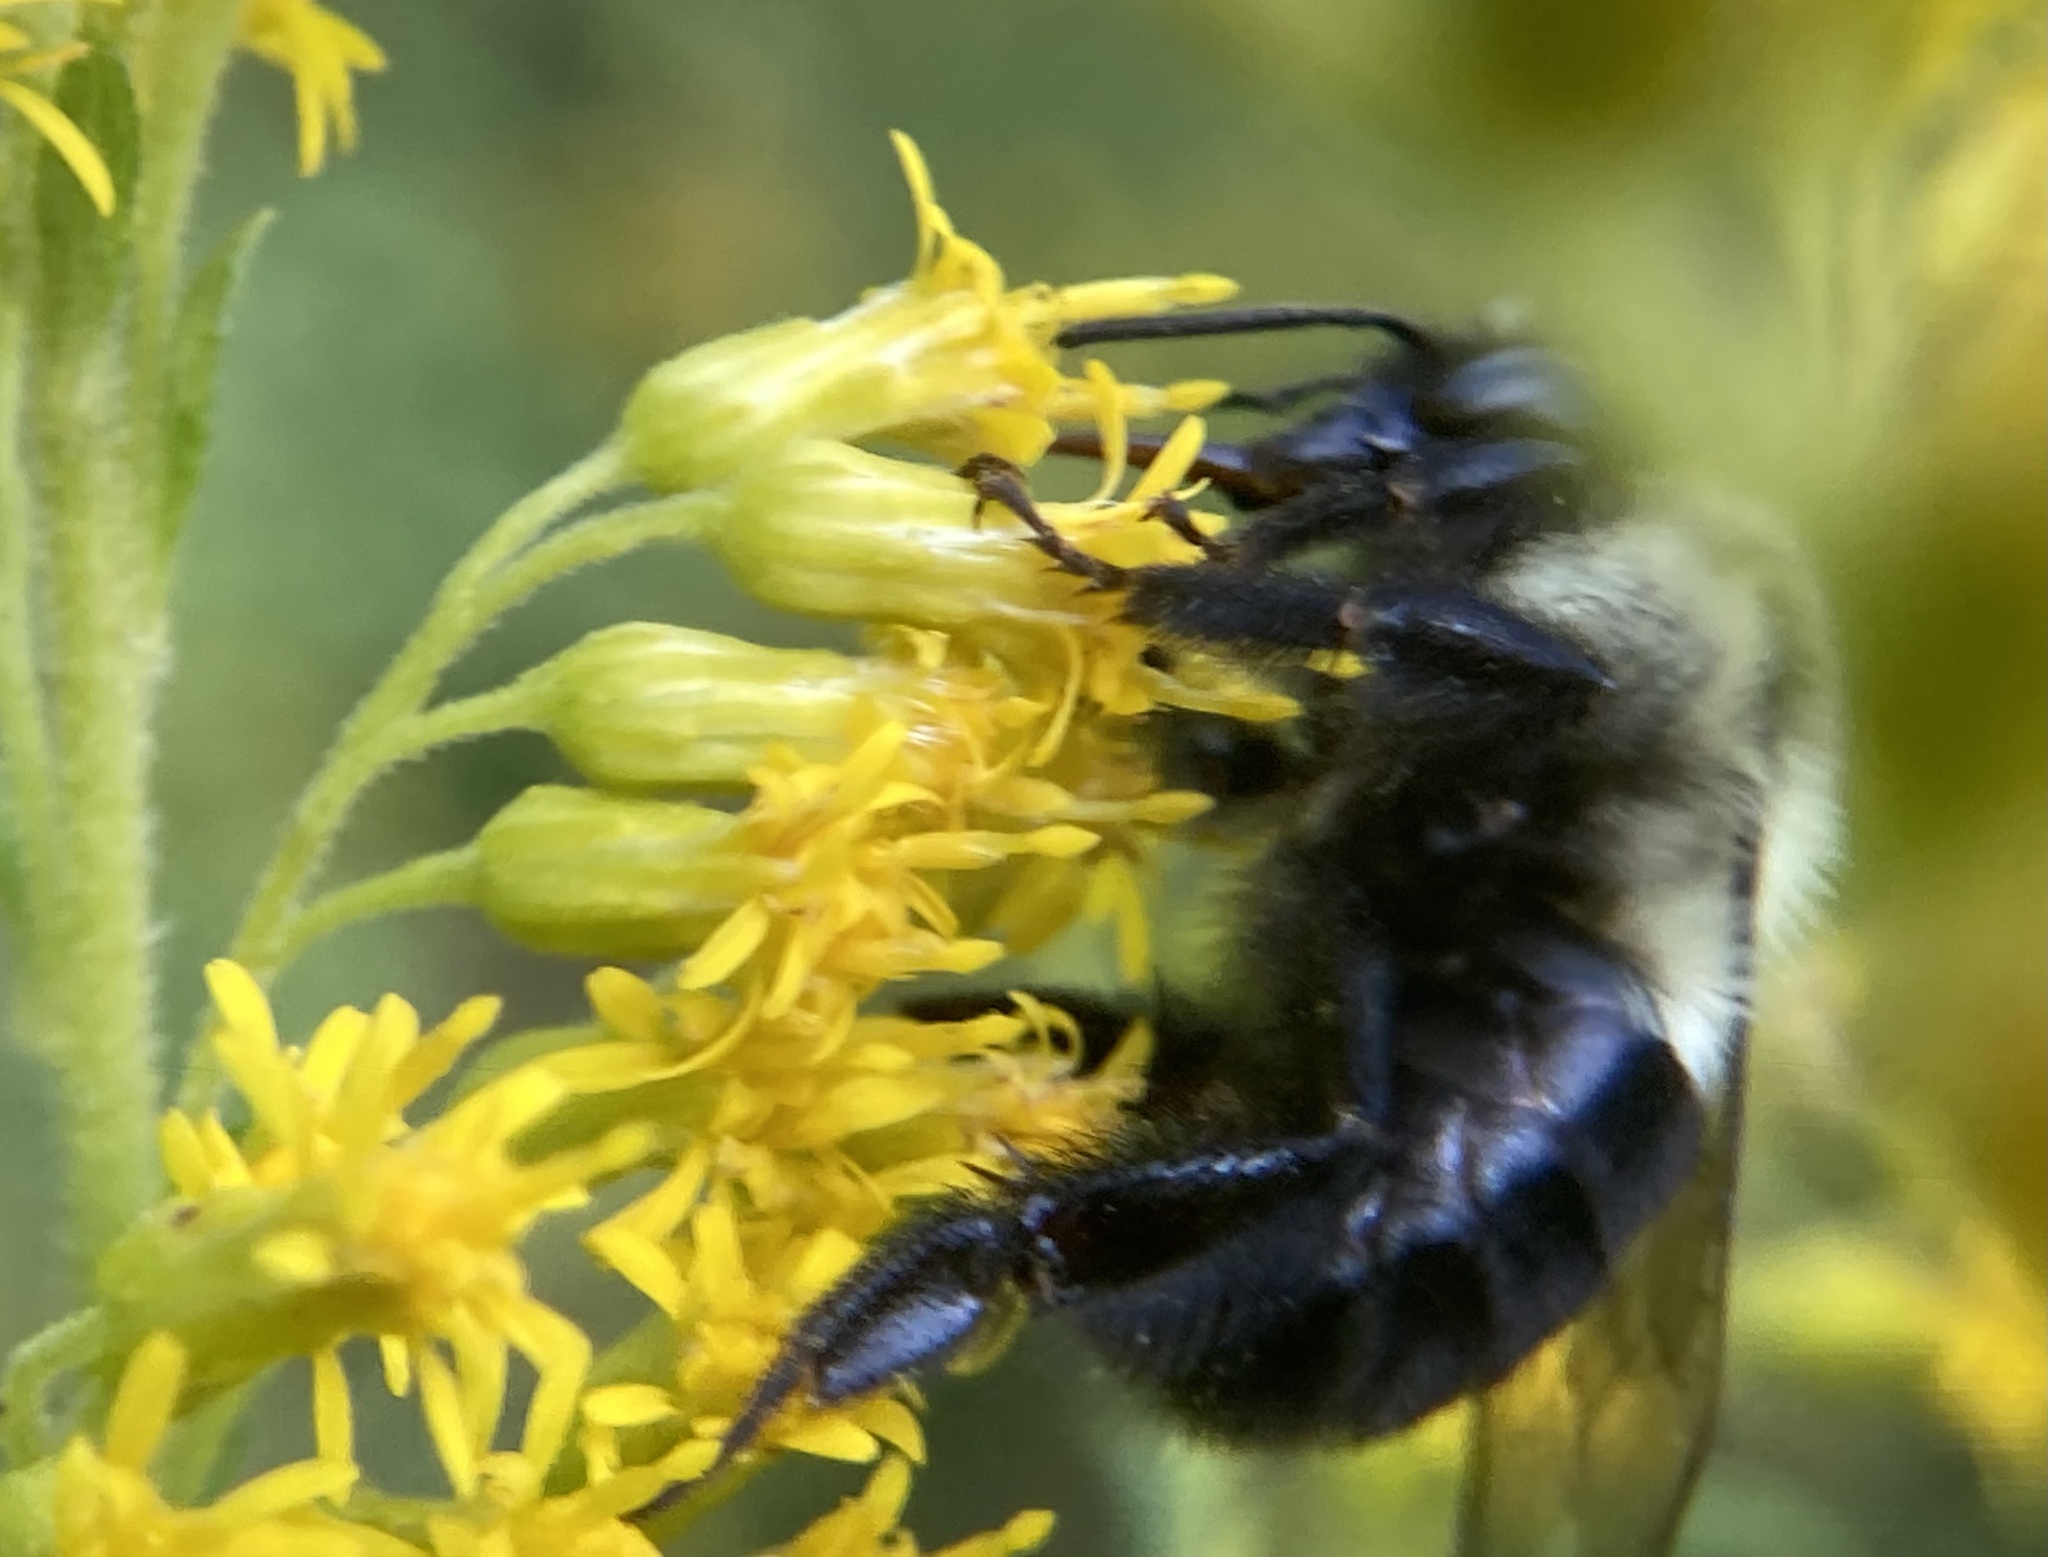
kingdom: Animalia
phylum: Arthropoda
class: Insecta
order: Hymenoptera
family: Apidae
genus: Bombus
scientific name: Bombus impatiens
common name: Common eastern bumble bee
